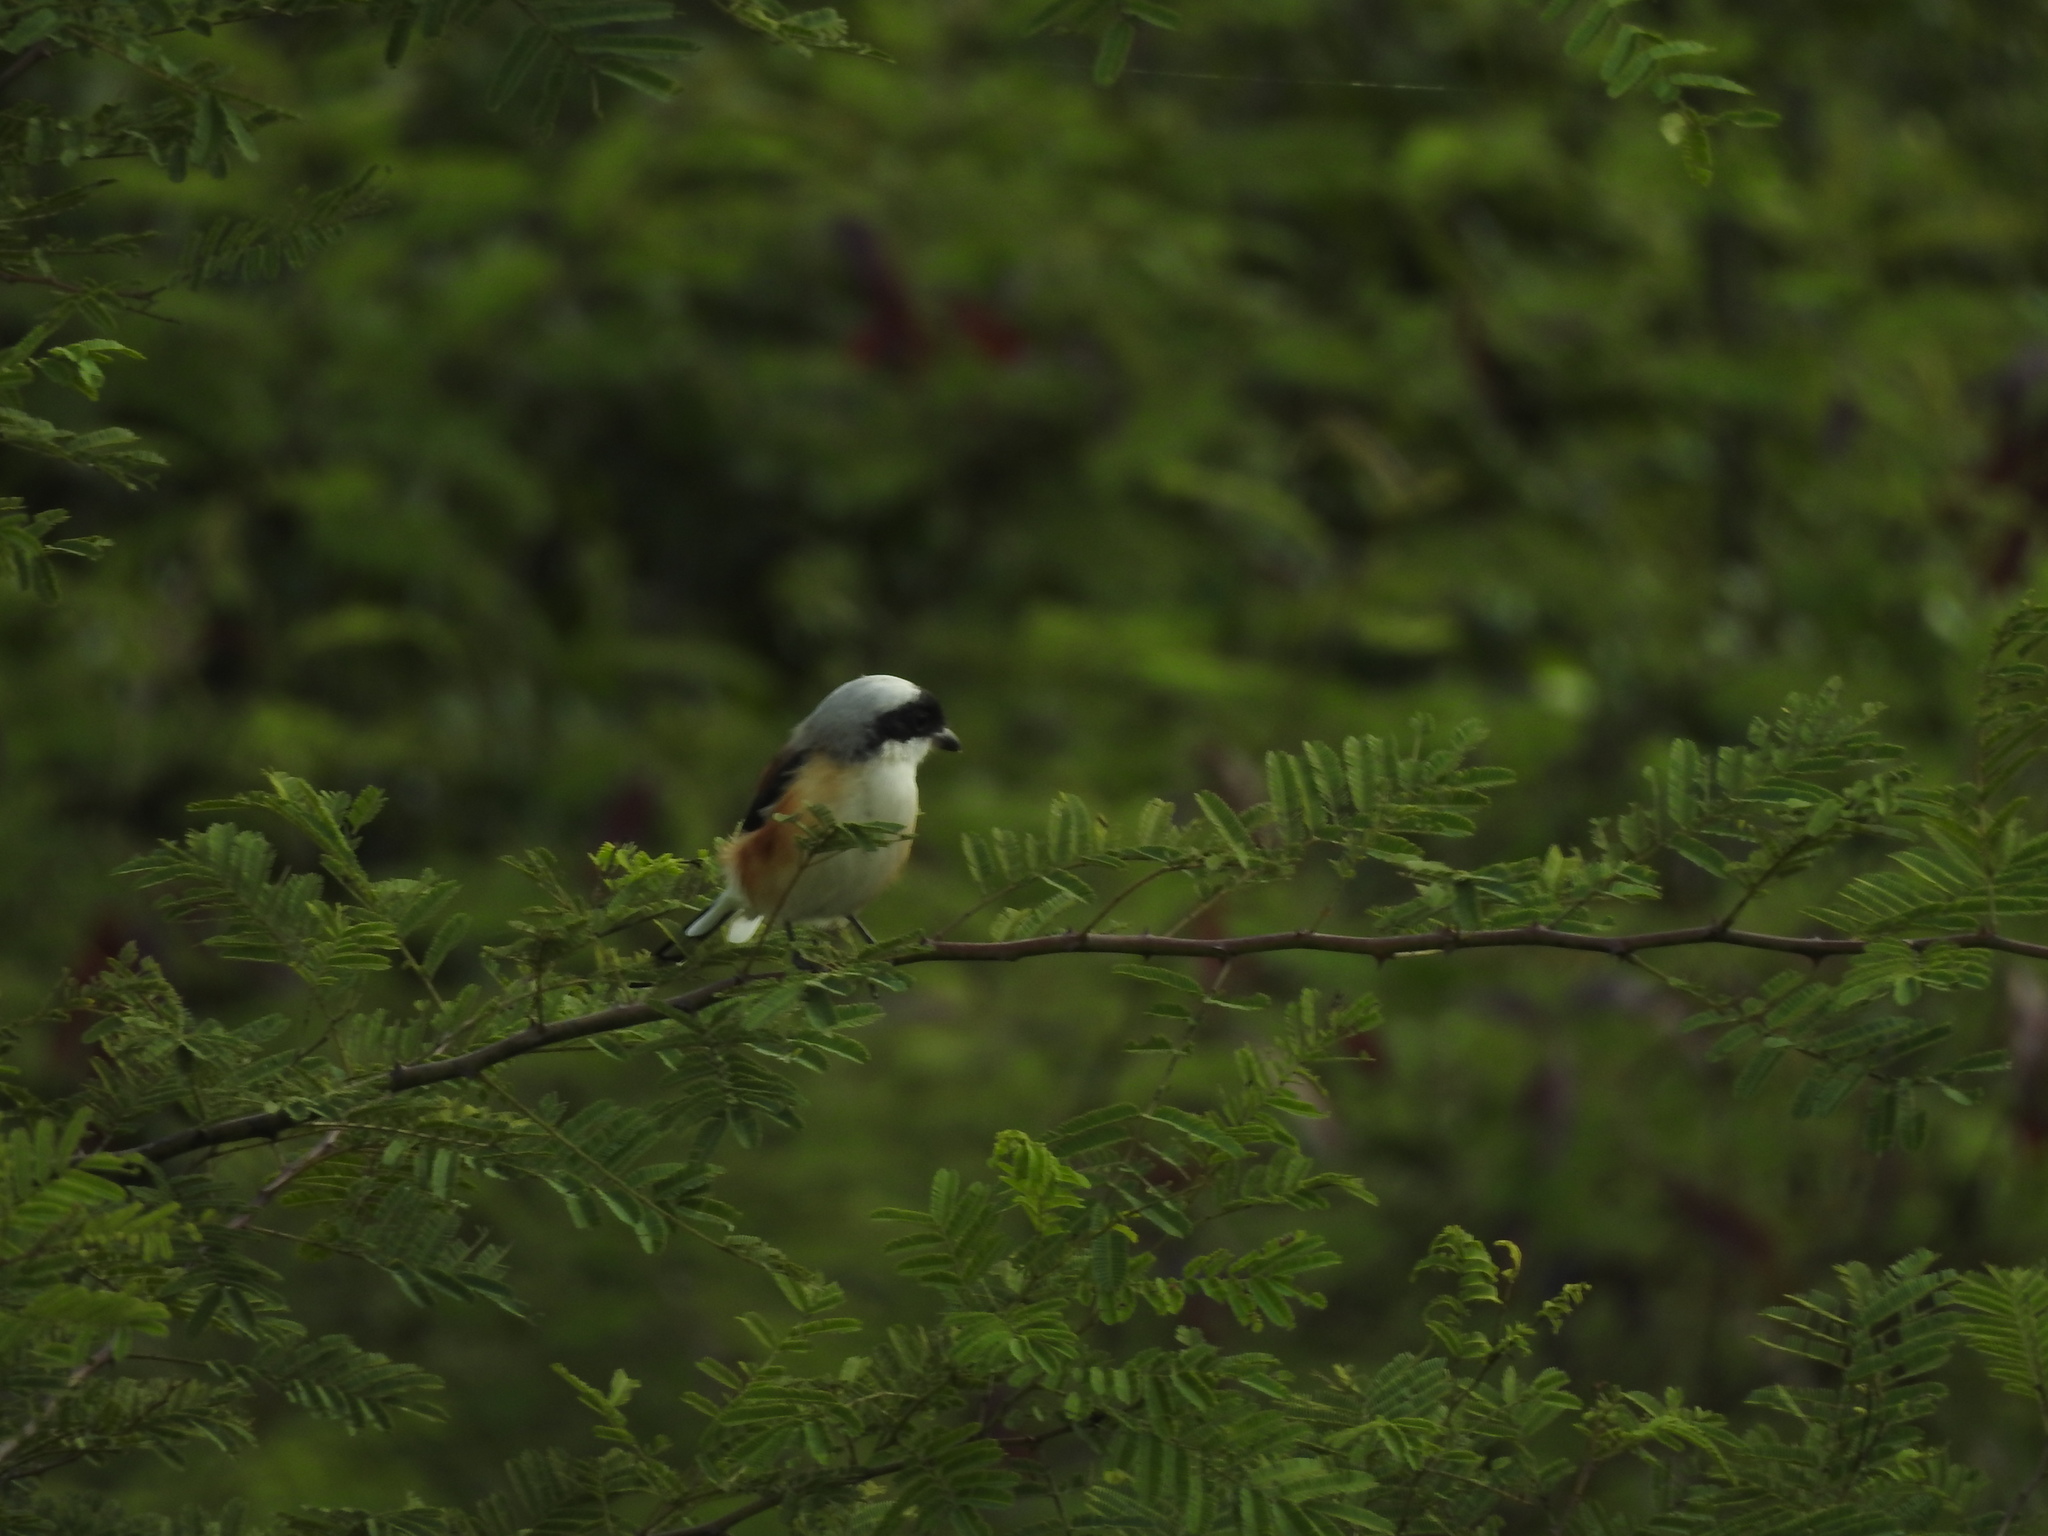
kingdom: Animalia
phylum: Chordata
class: Aves
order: Passeriformes
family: Laniidae
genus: Lanius
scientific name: Lanius vittatus
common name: Bay-backed shrike
